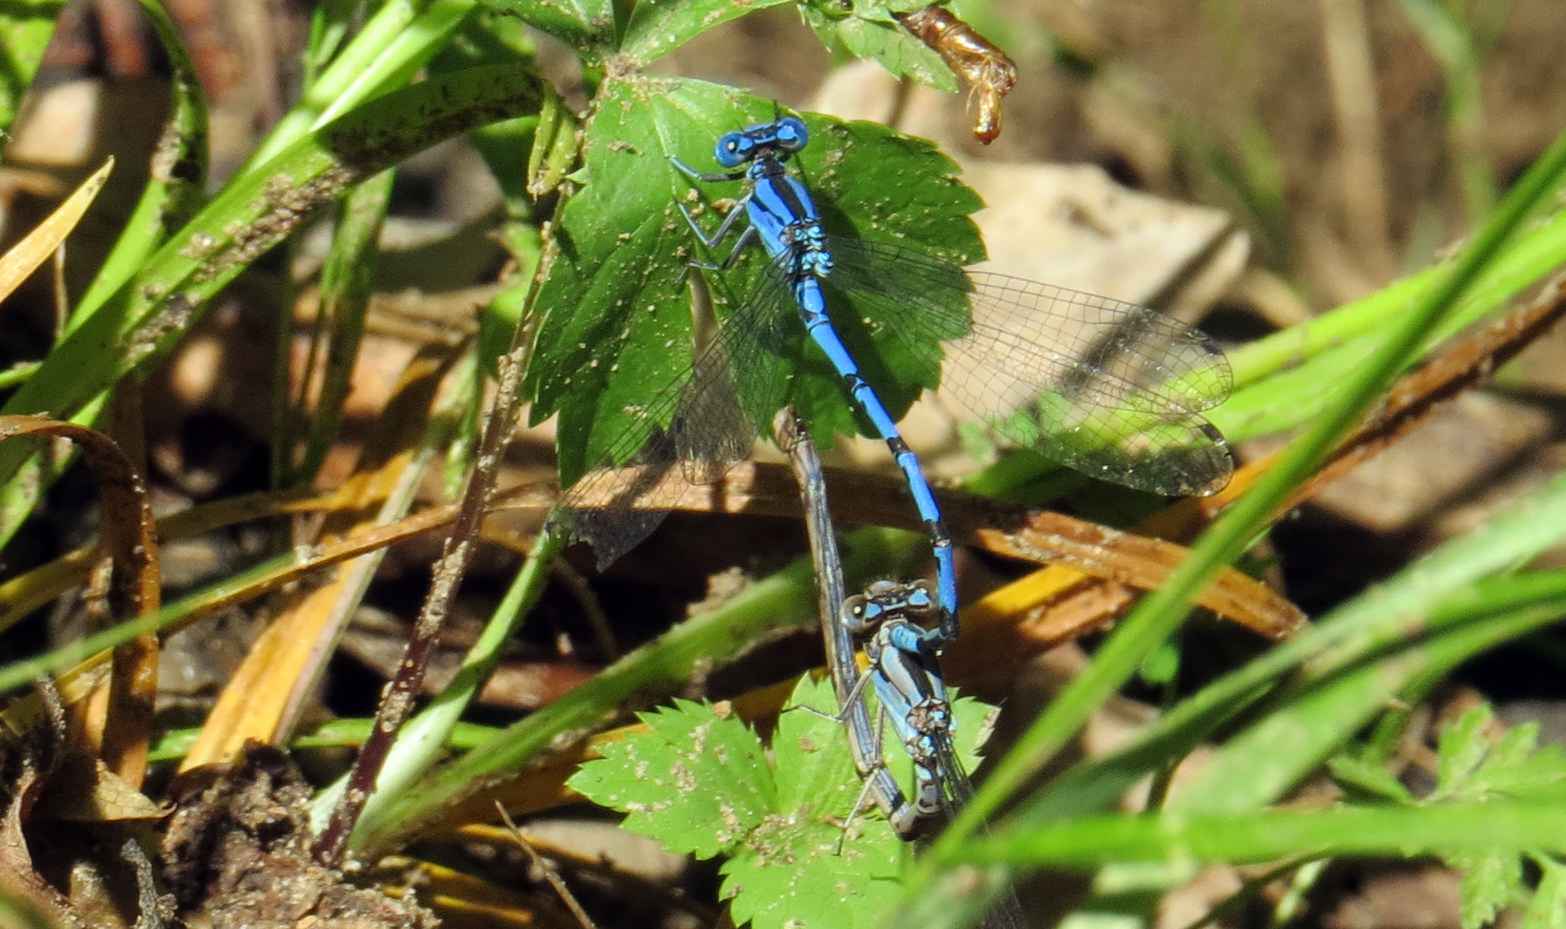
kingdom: Animalia
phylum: Arthropoda
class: Insecta
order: Odonata
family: Coenagrionidae
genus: Argia
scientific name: Argia funebris
